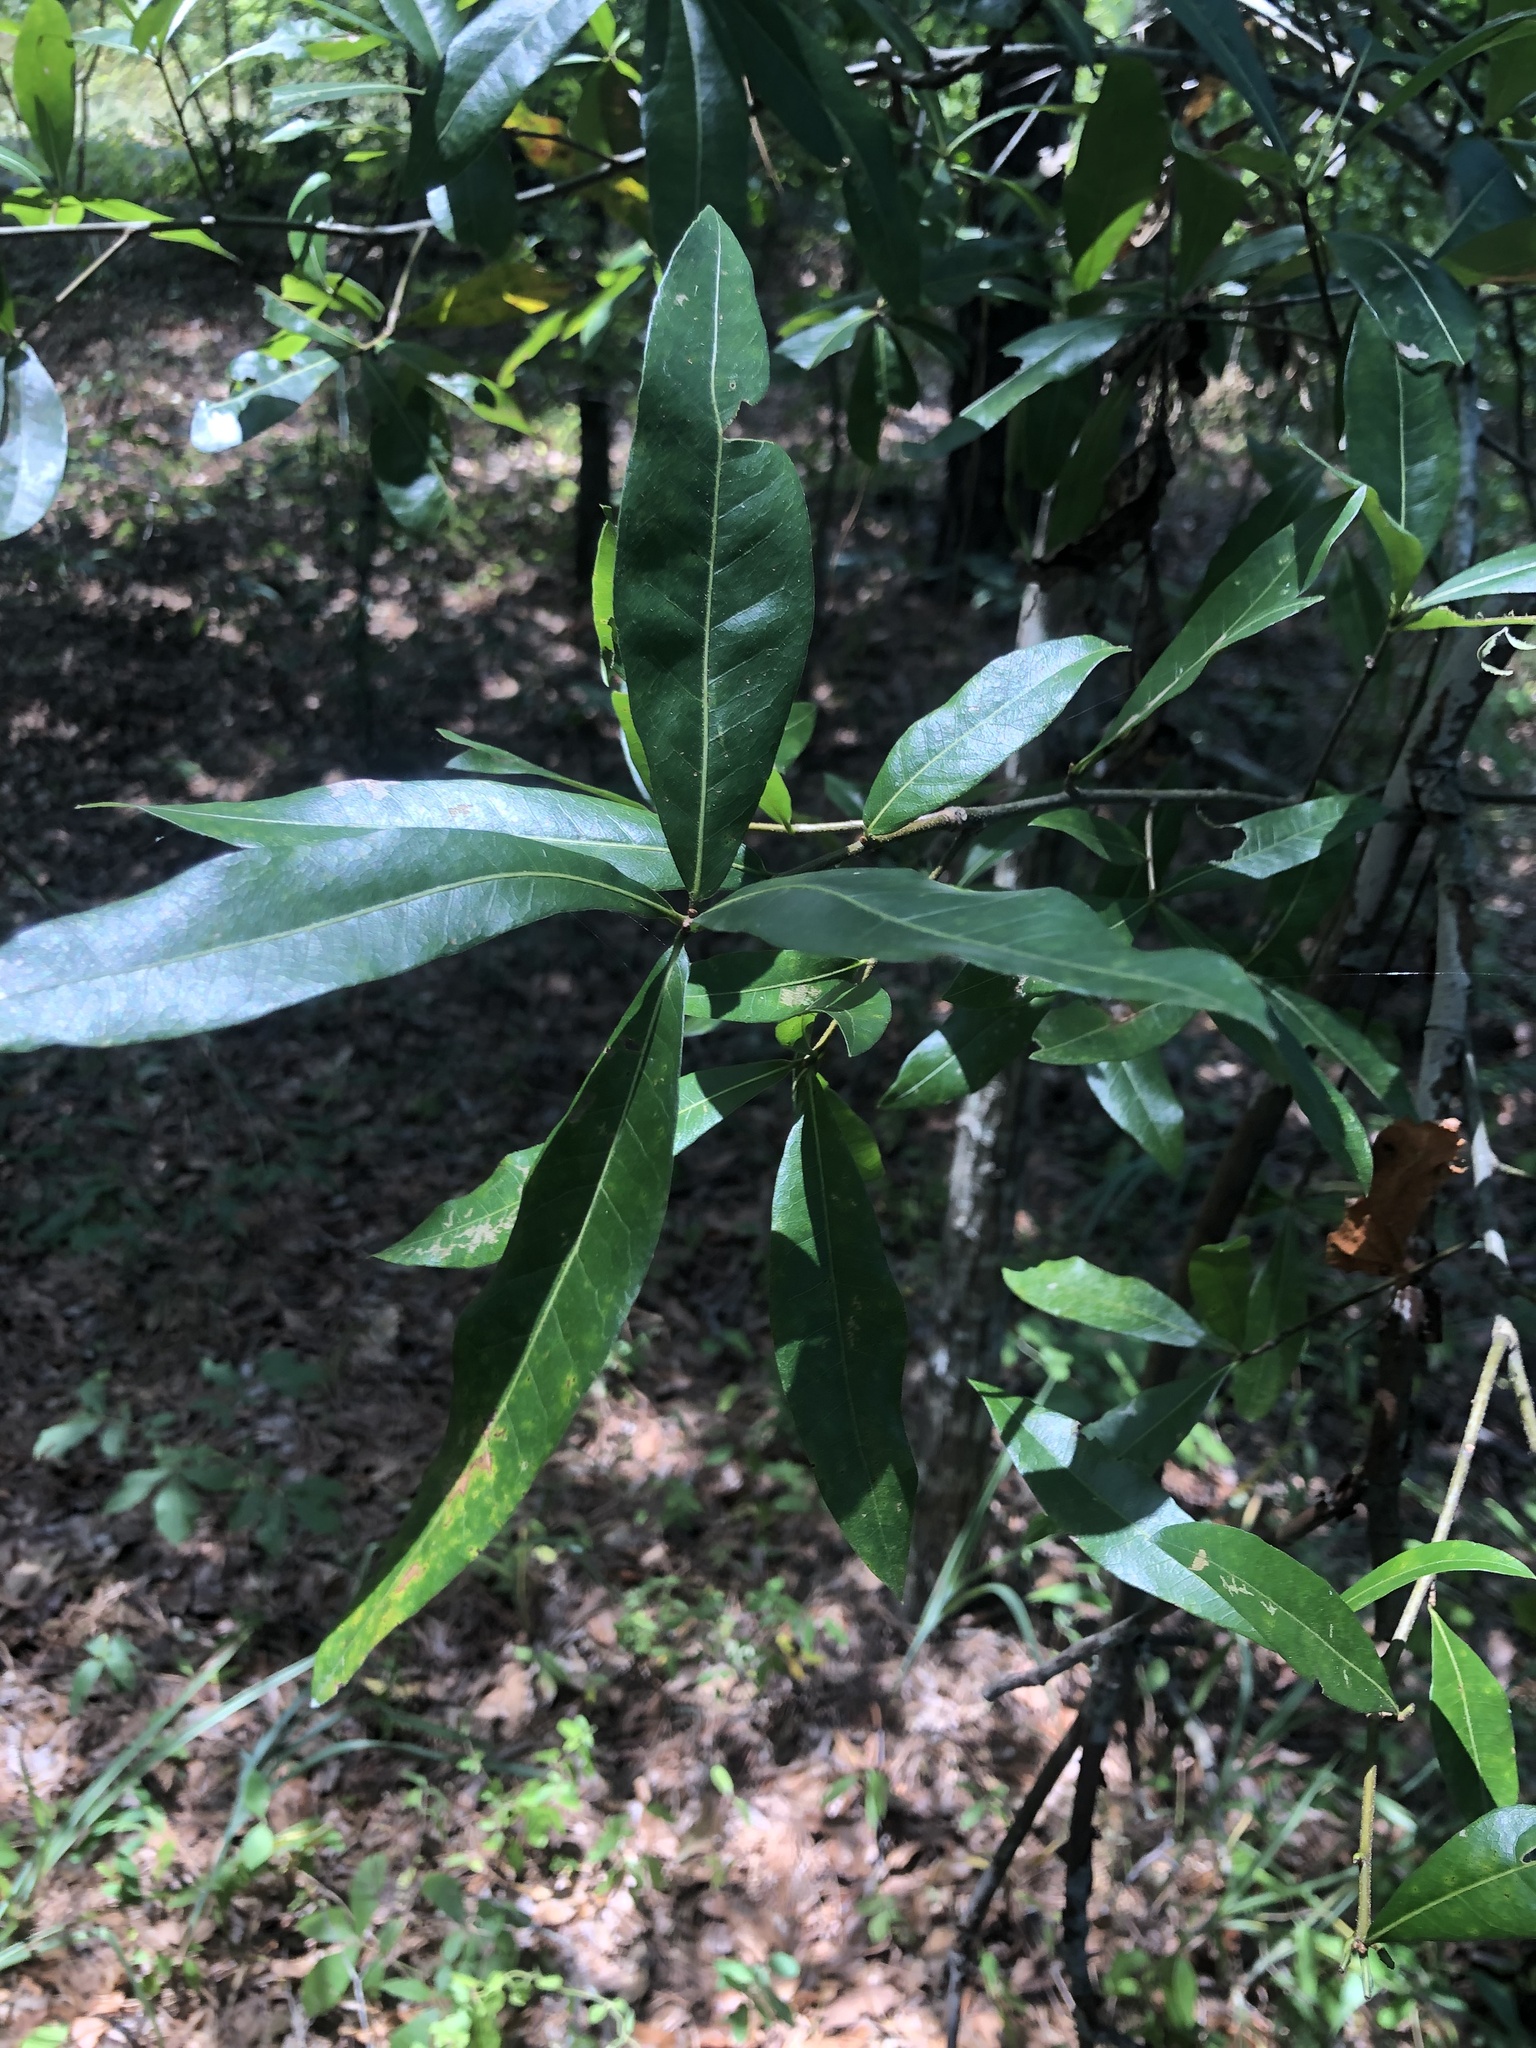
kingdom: Plantae
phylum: Tracheophyta
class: Magnoliopsida
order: Fagales
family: Fagaceae
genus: Quercus
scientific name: Quercus hemisphaerica
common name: Darlington oak
